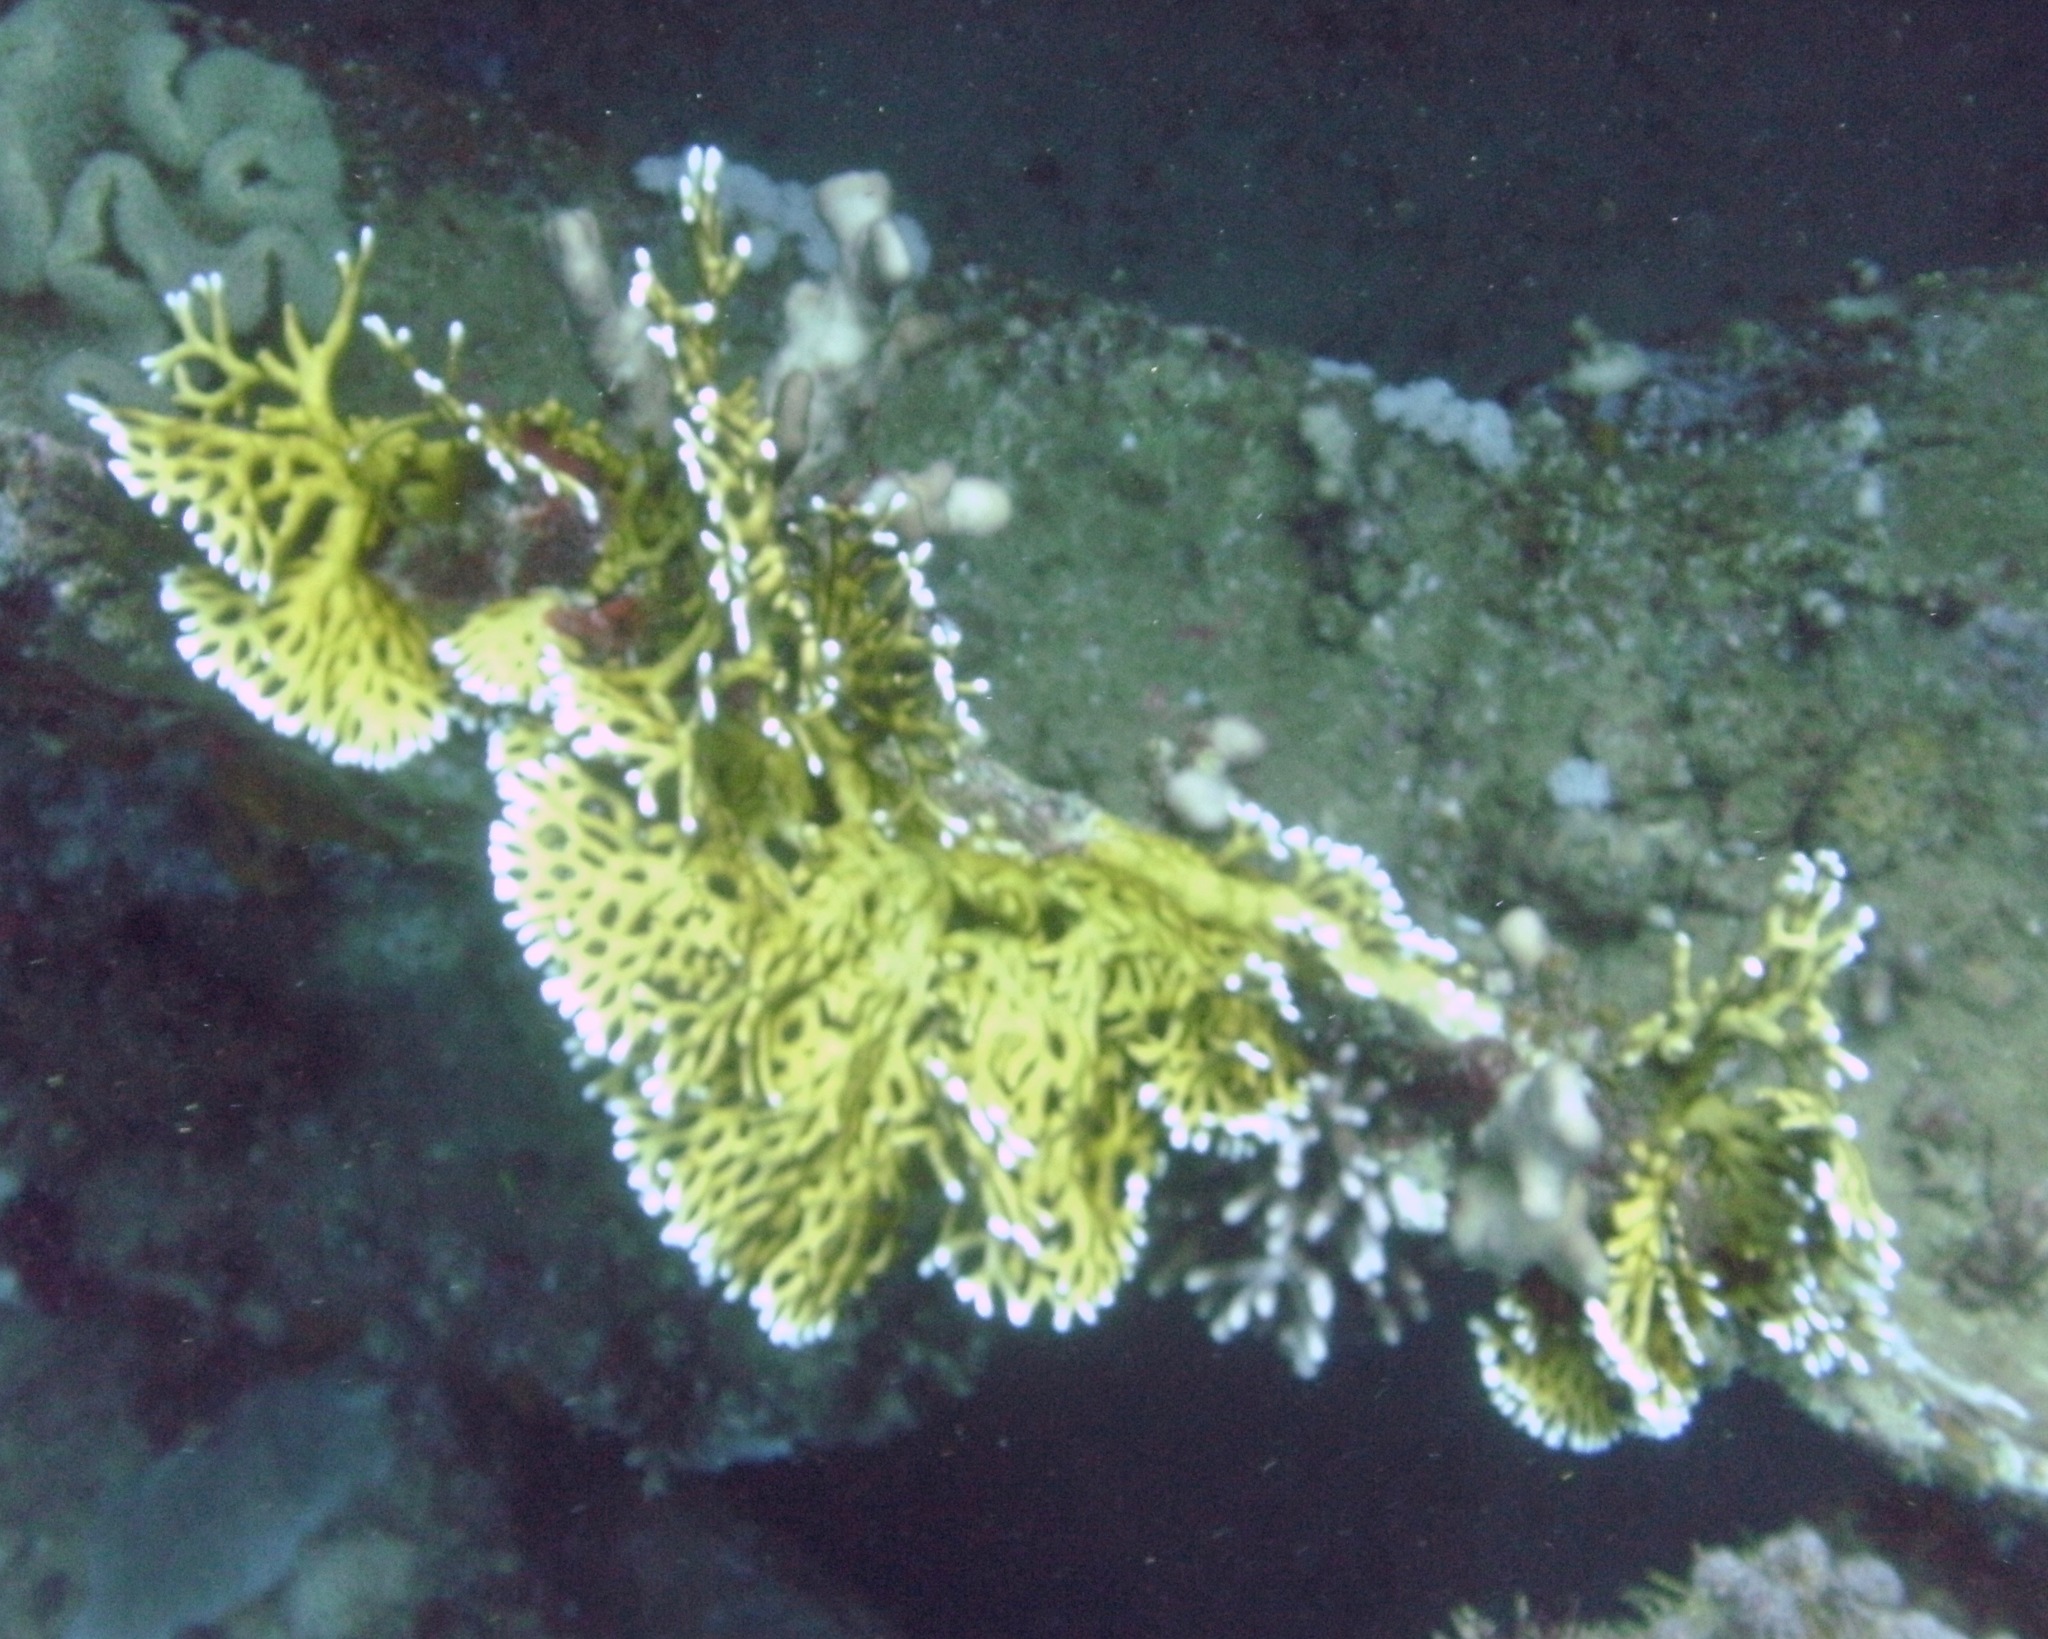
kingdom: Animalia
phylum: Cnidaria
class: Hydrozoa
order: Anthoathecata
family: Milleporidae
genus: Millepora
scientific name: Millepora dichotoma
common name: Ramified fire coral
